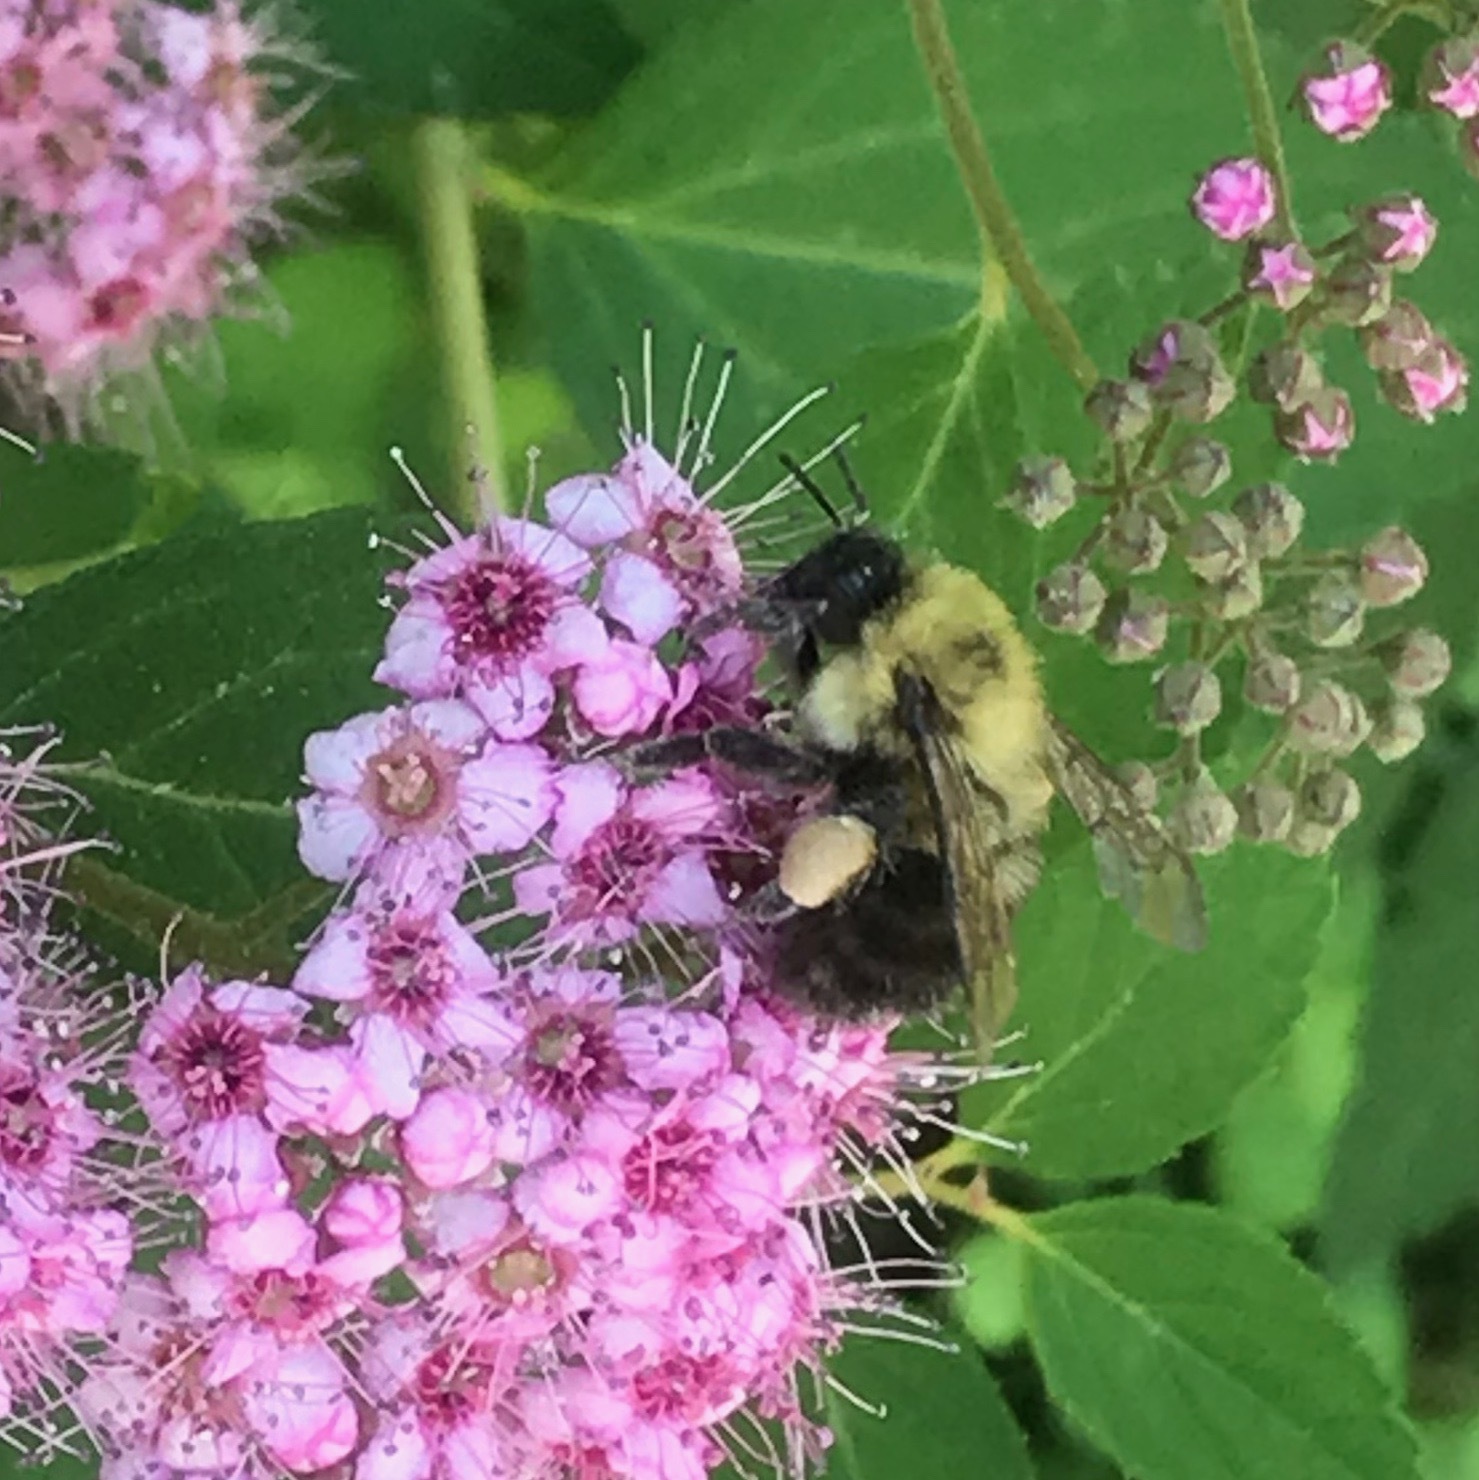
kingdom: Animalia
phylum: Arthropoda
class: Insecta
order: Hymenoptera
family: Apidae
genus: Bombus
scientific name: Bombus bimaculatus
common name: Two-spotted bumble bee
